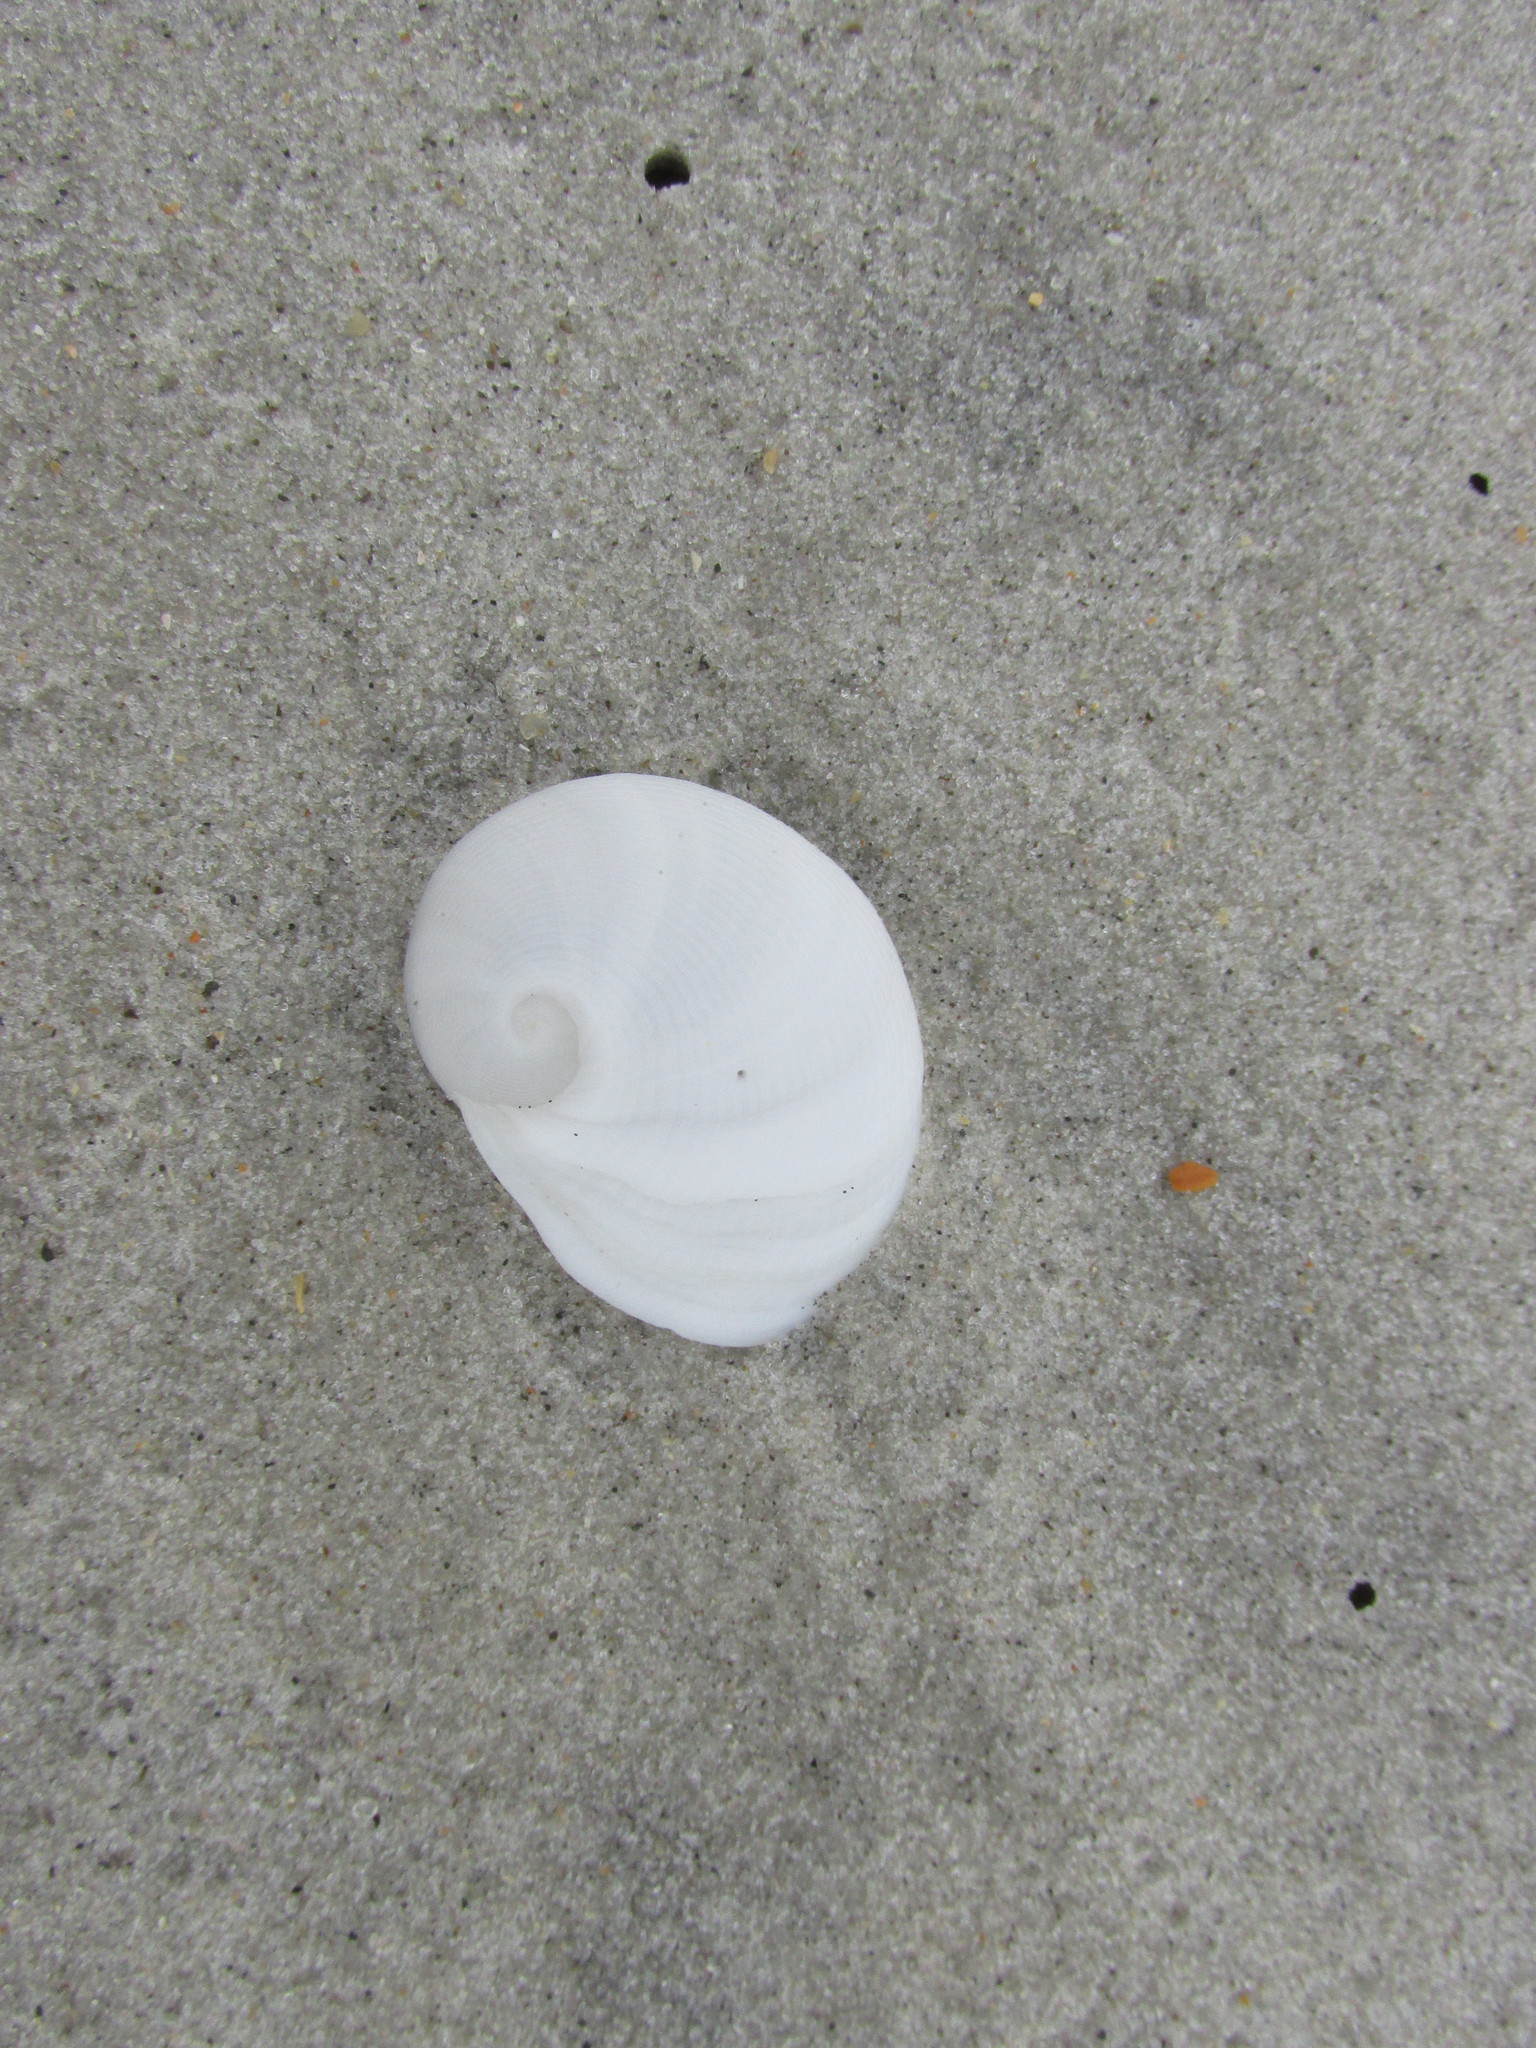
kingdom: Animalia
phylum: Mollusca
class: Gastropoda
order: Littorinimorpha
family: Naticidae
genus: Sinum
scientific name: Sinum perspectivum
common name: White baby ear
